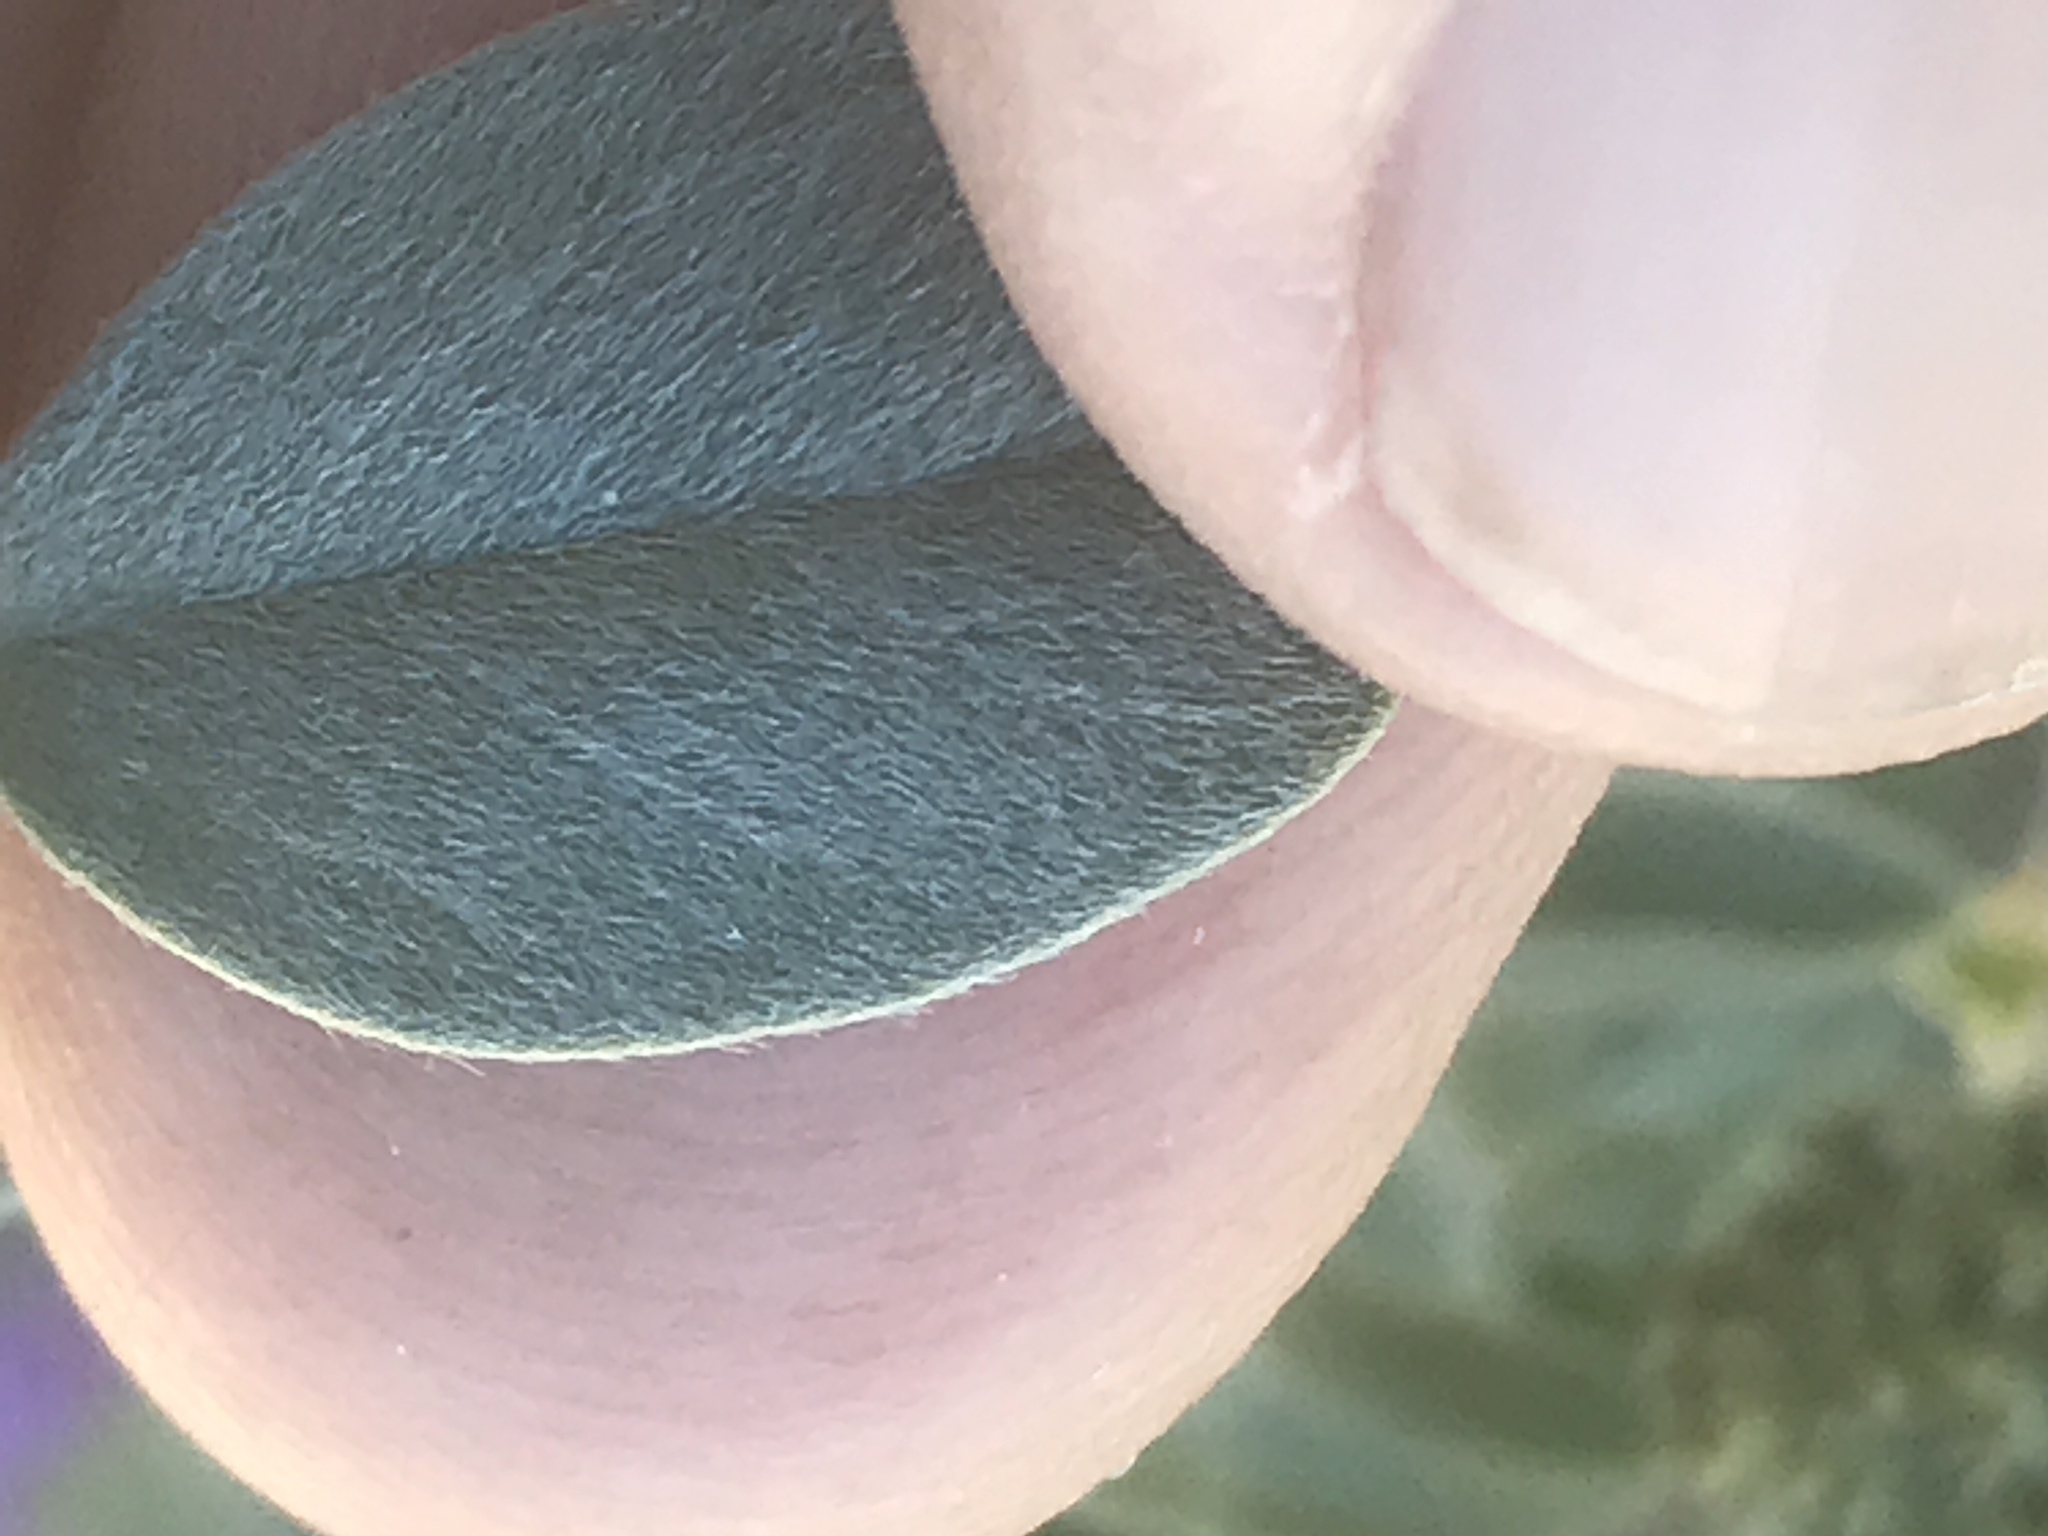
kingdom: Plantae
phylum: Tracheophyta
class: Magnoliopsida
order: Fabales
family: Fabaceae
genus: Astragalus
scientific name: Astragalus lentiginosus
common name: Freckled milkvetch
